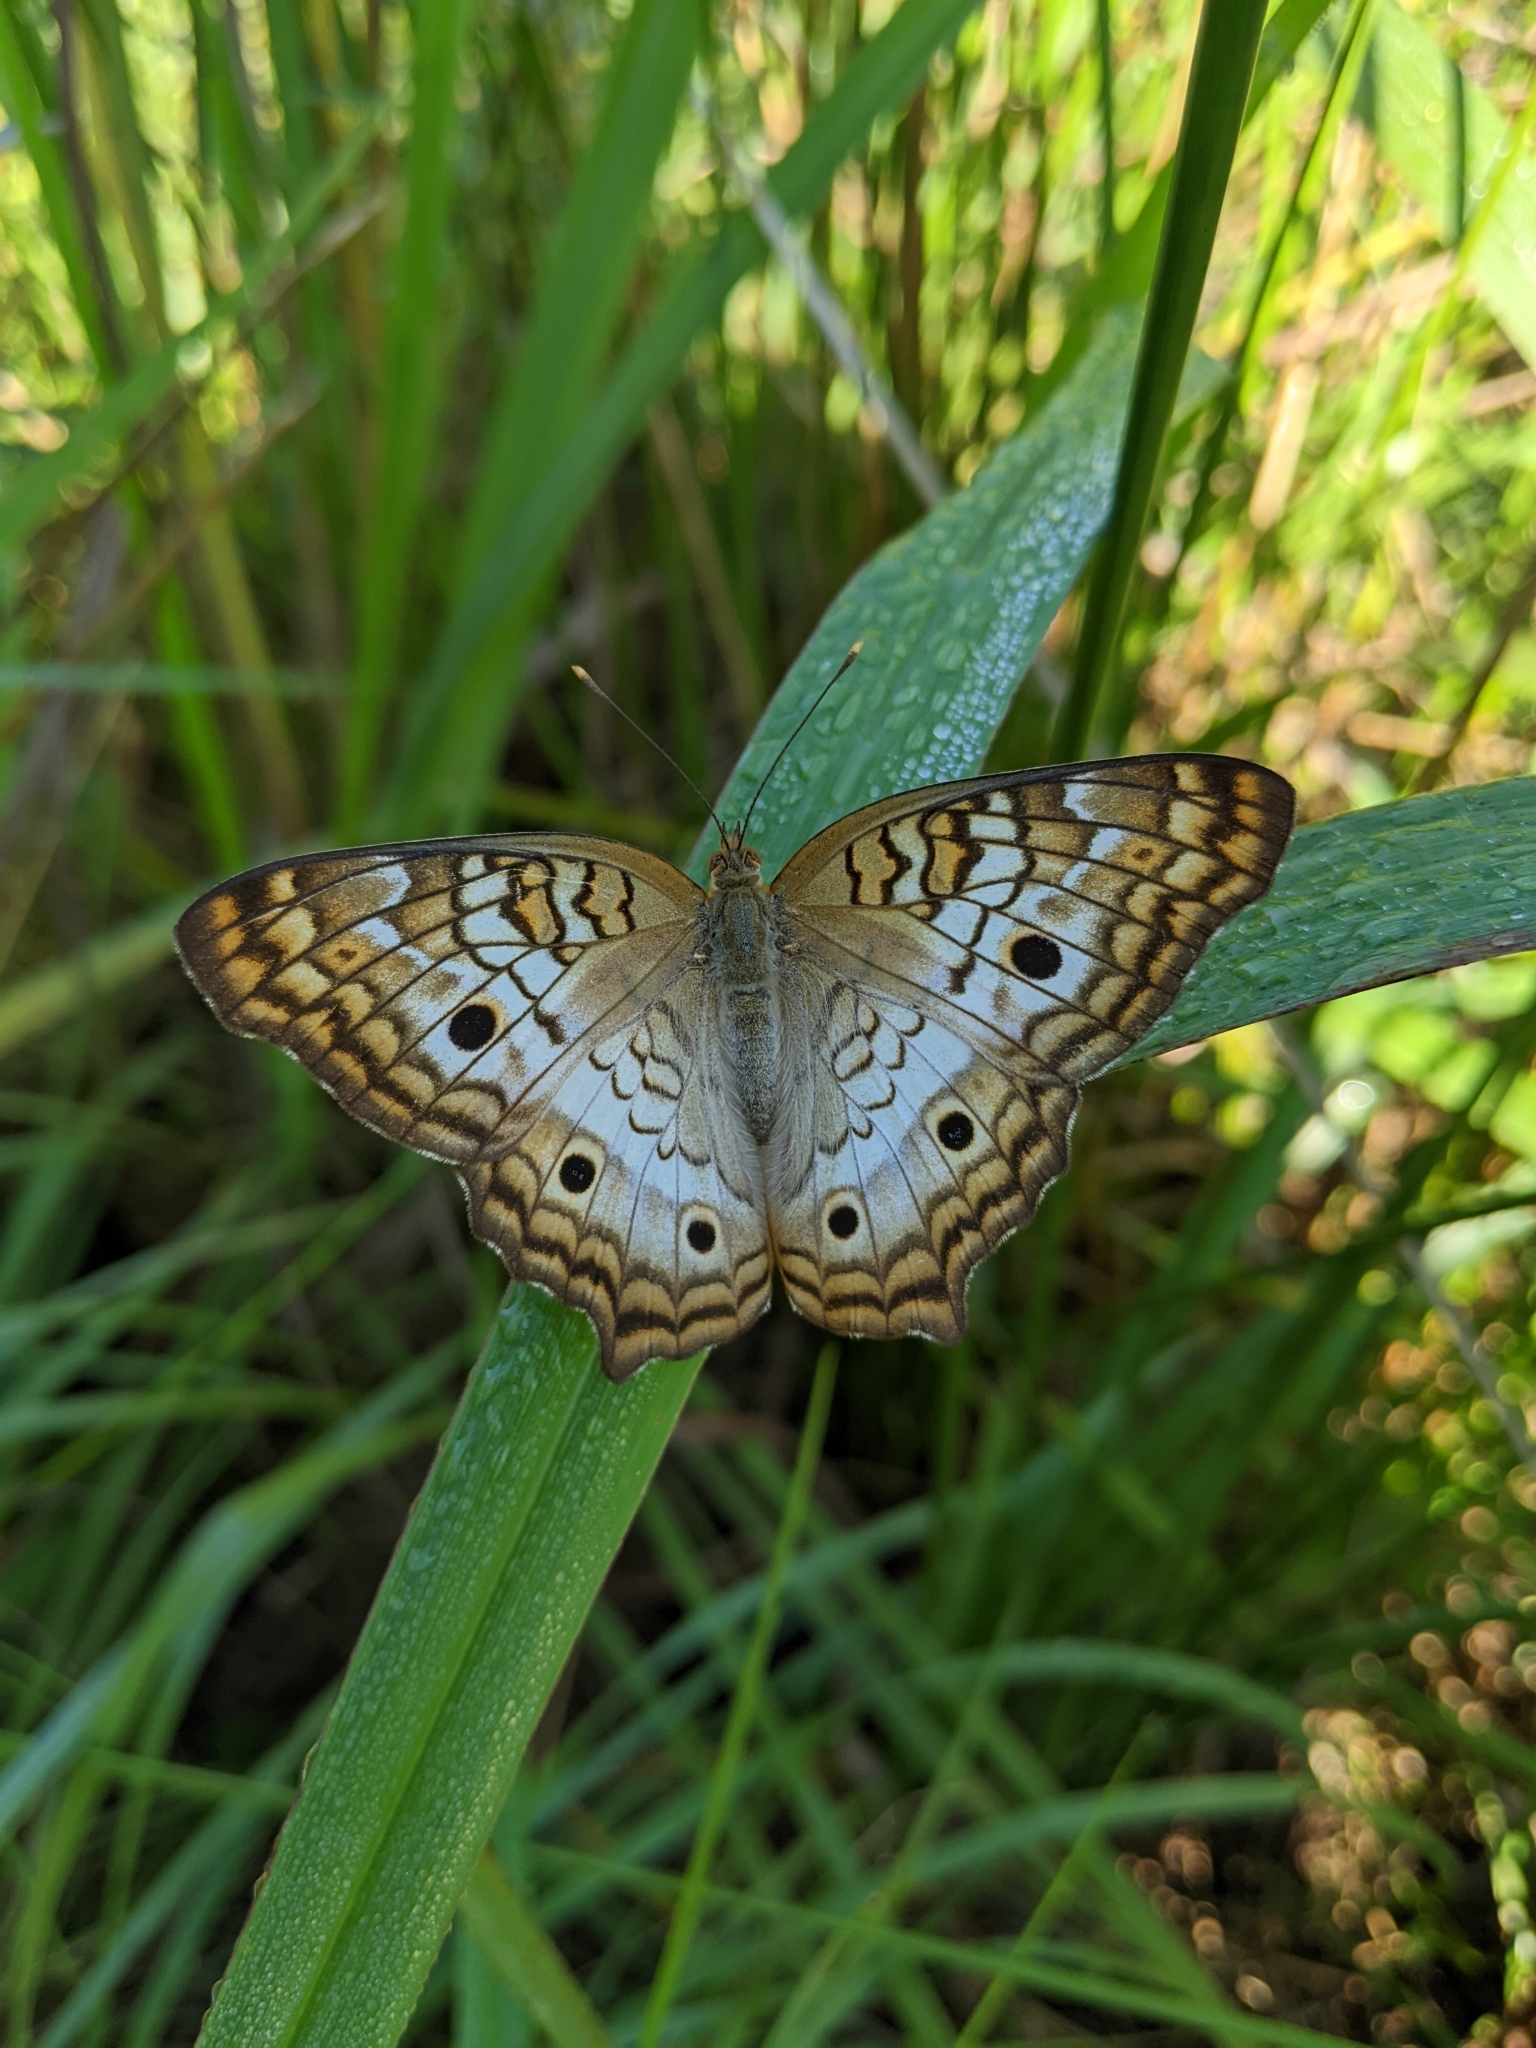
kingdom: Animalia
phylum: Arthropoda
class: Insecta
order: Lepidoptera
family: Nymphalidae
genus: Anartia
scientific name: Anartia jatrophae
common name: White peacock
